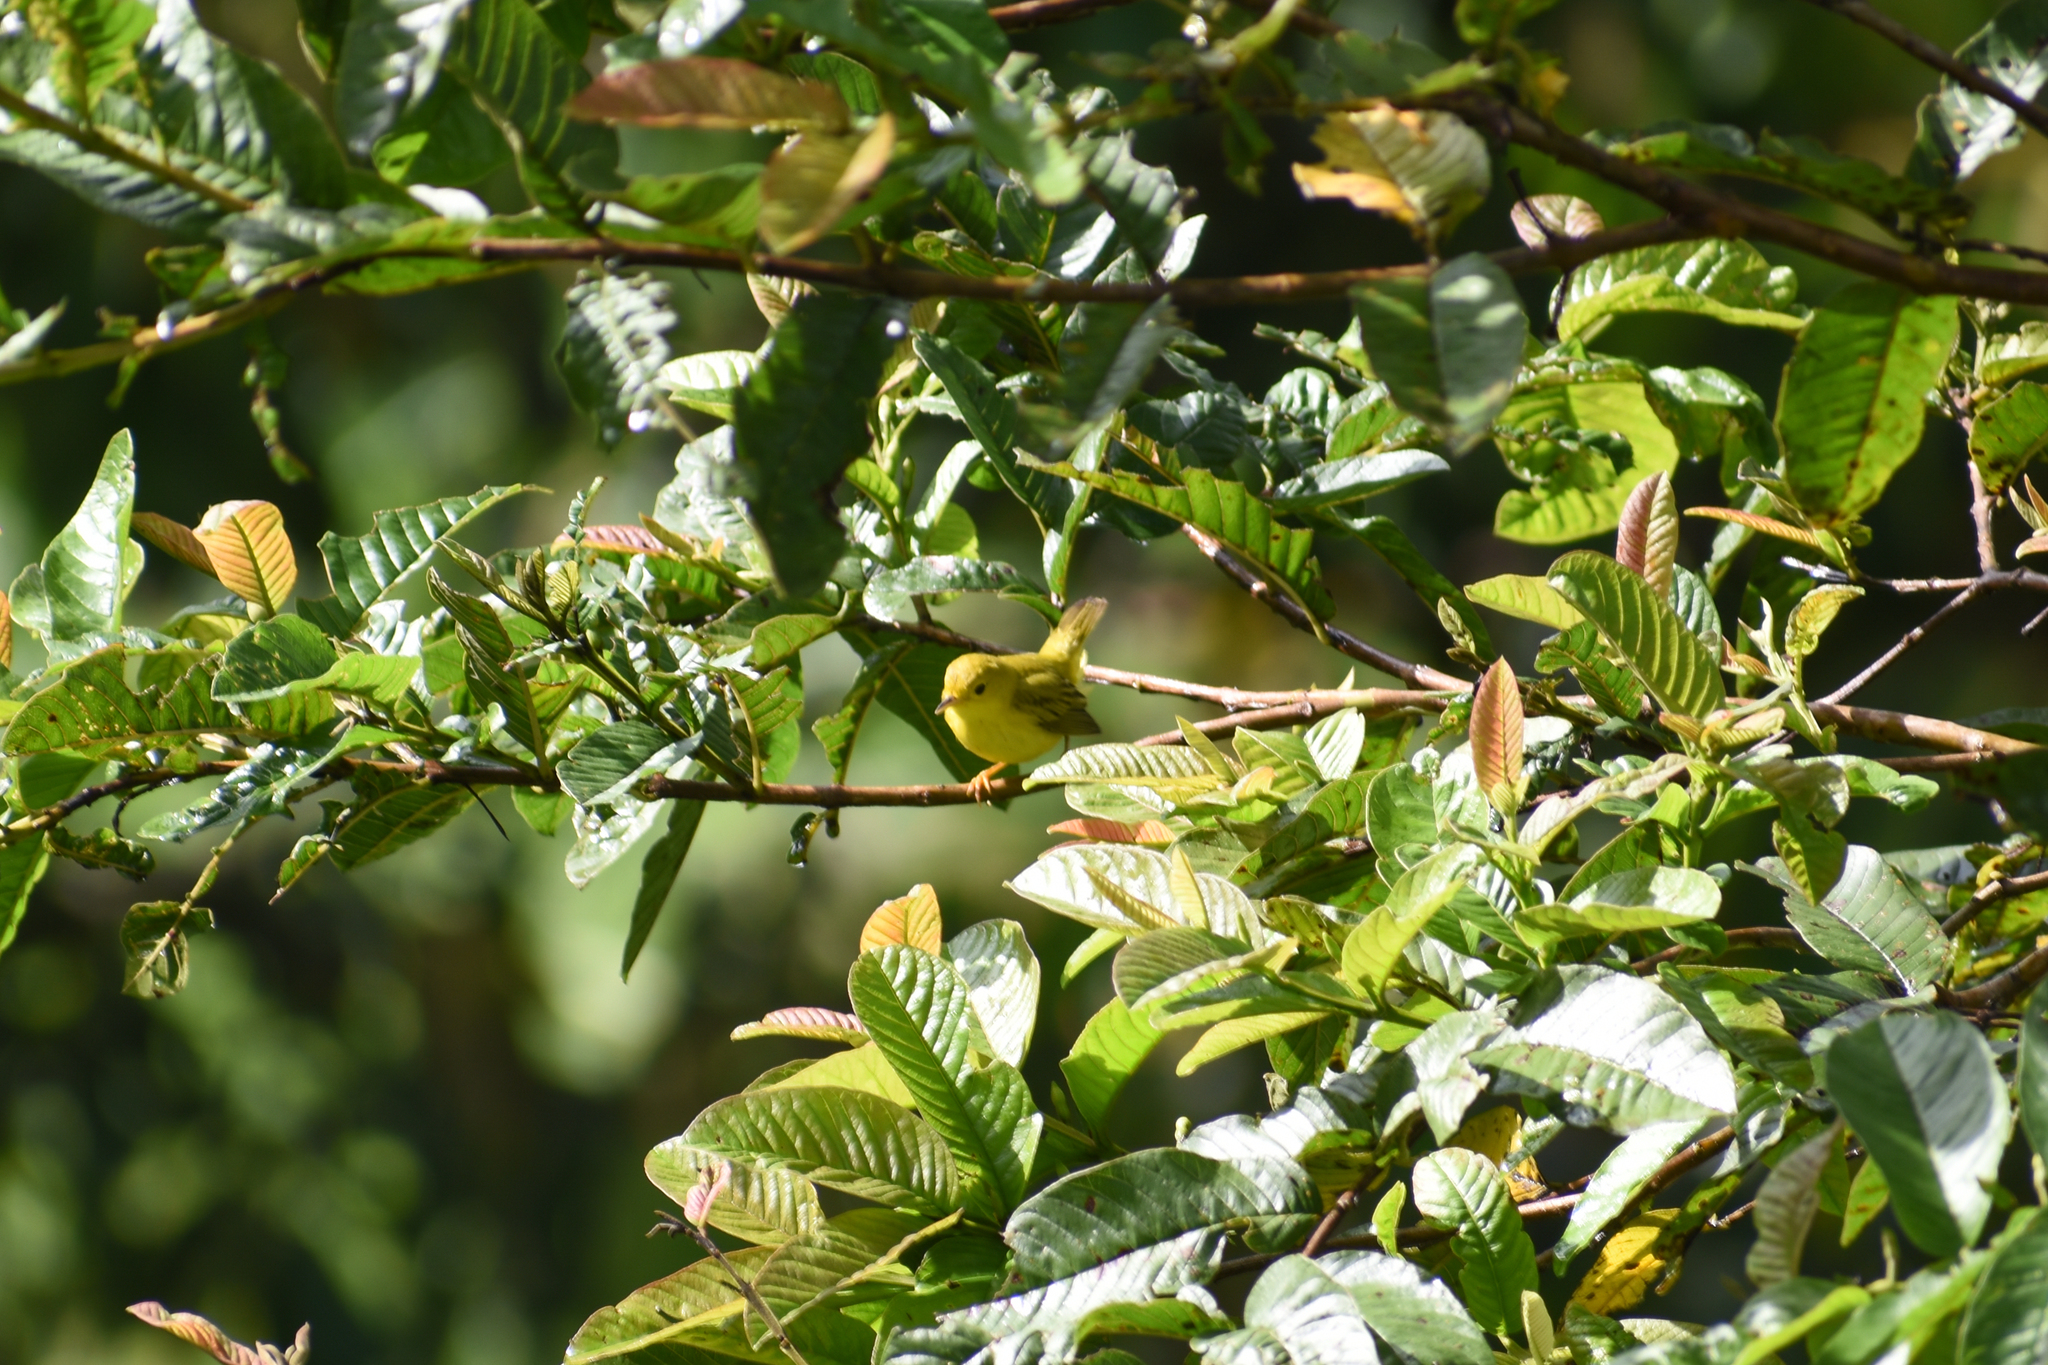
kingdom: Animalia
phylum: Chordata
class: Aves
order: Passeriformes
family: Parulidae
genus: Setophaga
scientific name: Setophaga petechia
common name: Yellow warbler
